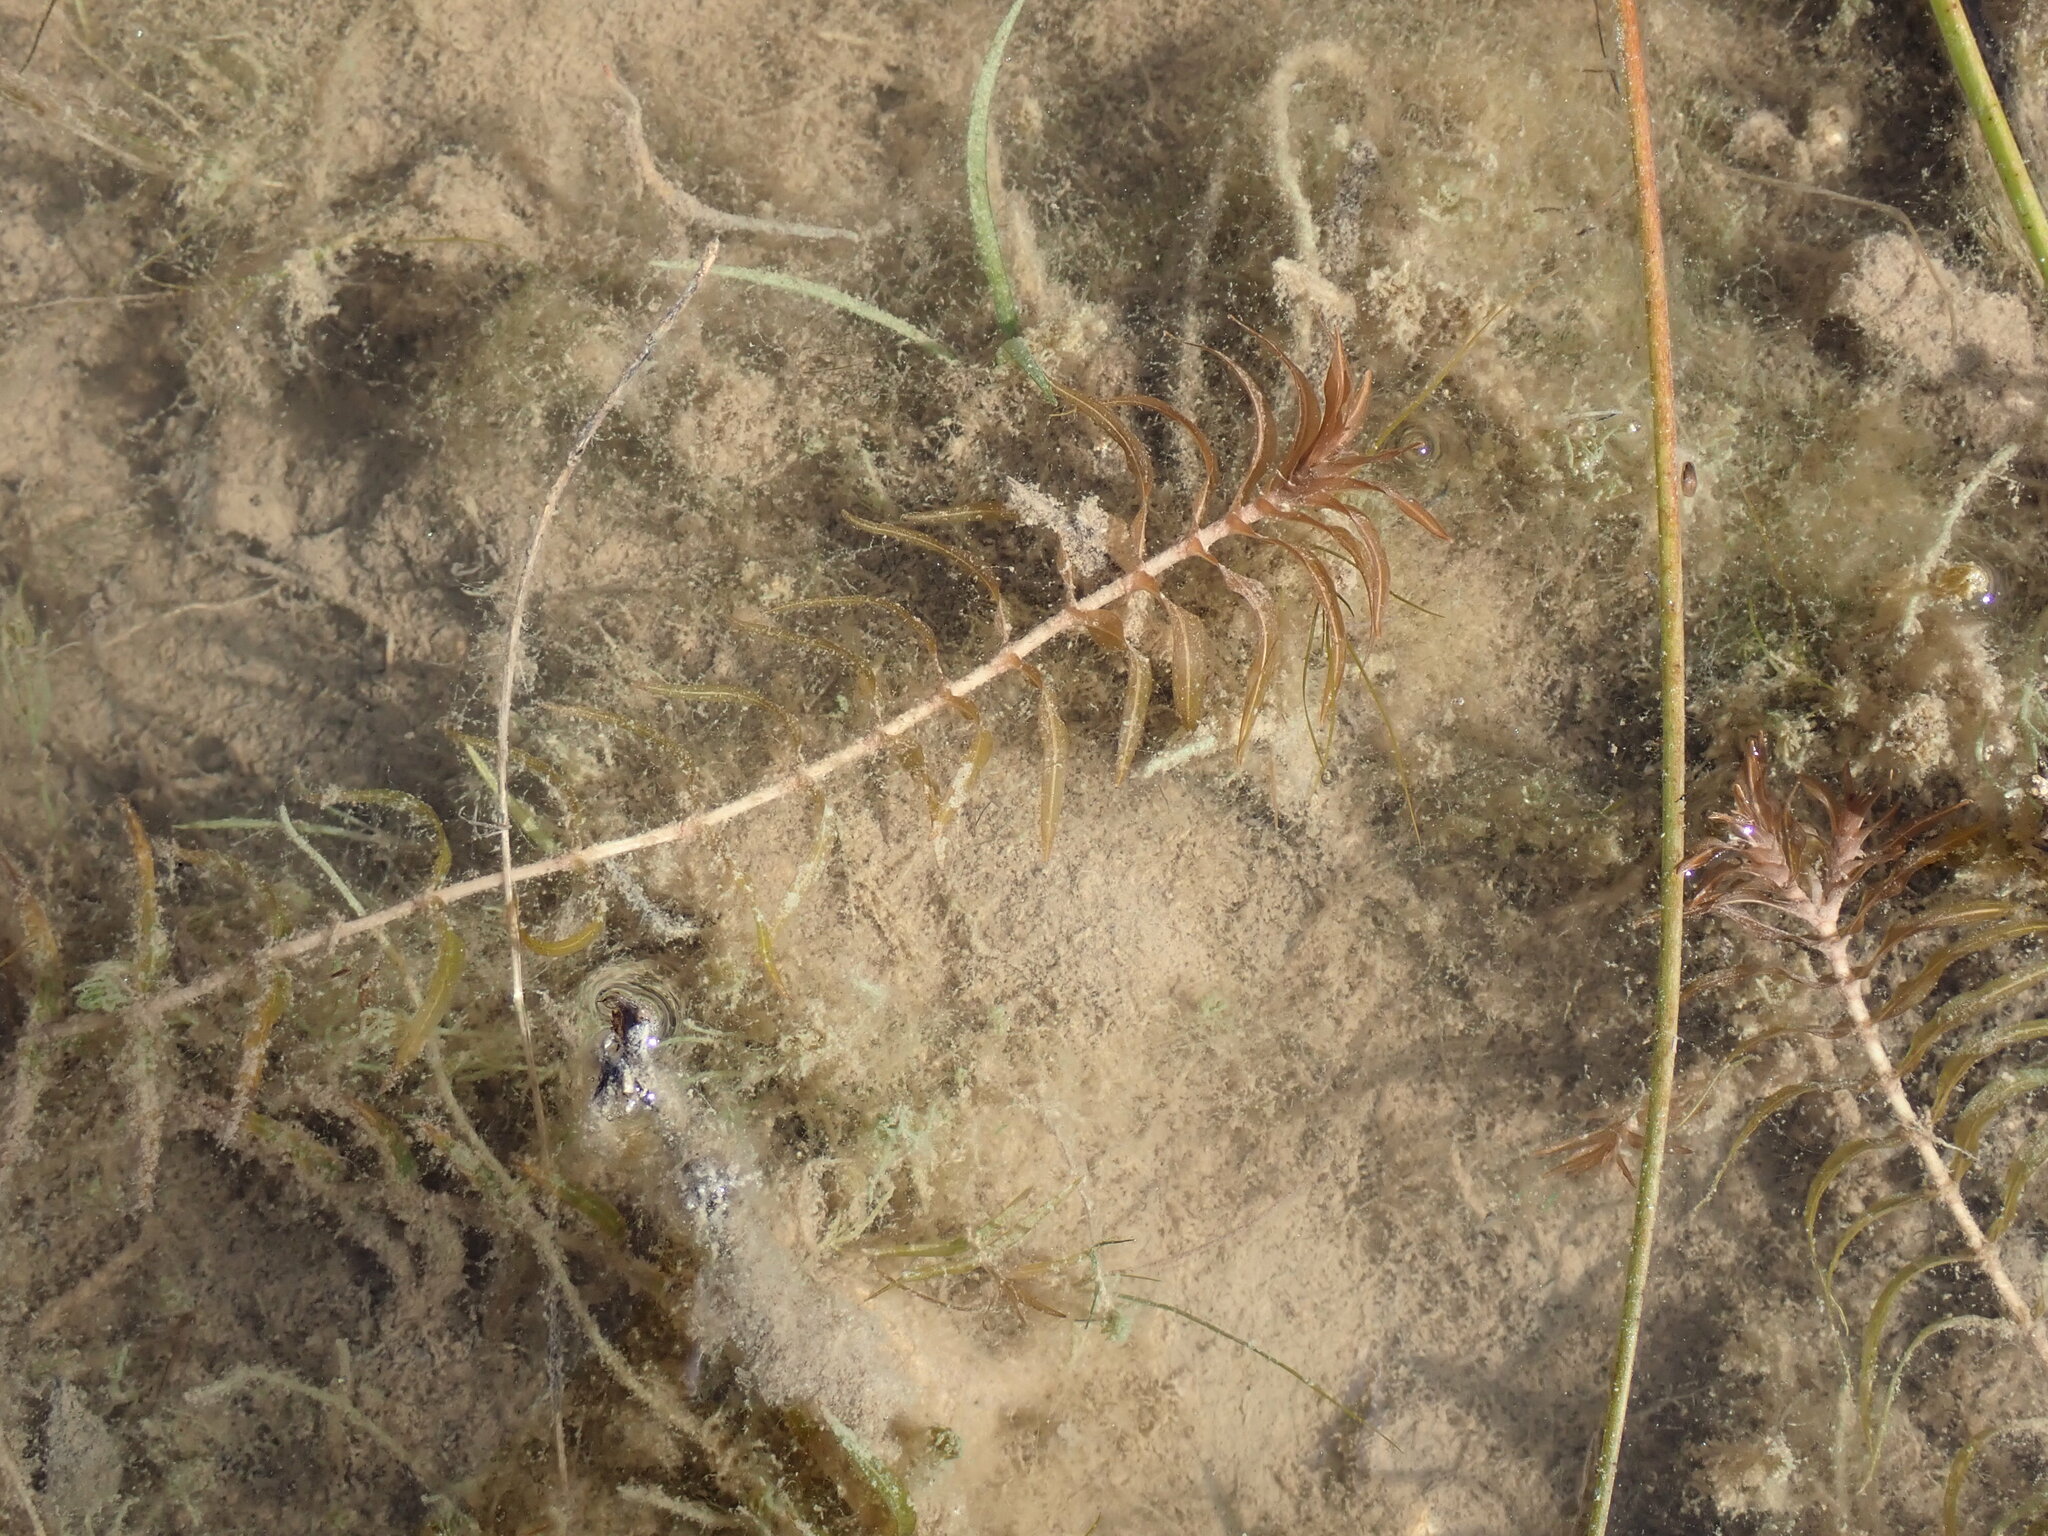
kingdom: Plantae
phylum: Tracheophyta
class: Liliopsida
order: Alismatales
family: Potamogetonaceae
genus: Groenlandia
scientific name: Groenlandia densa
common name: Opposite-leaved pondweed
